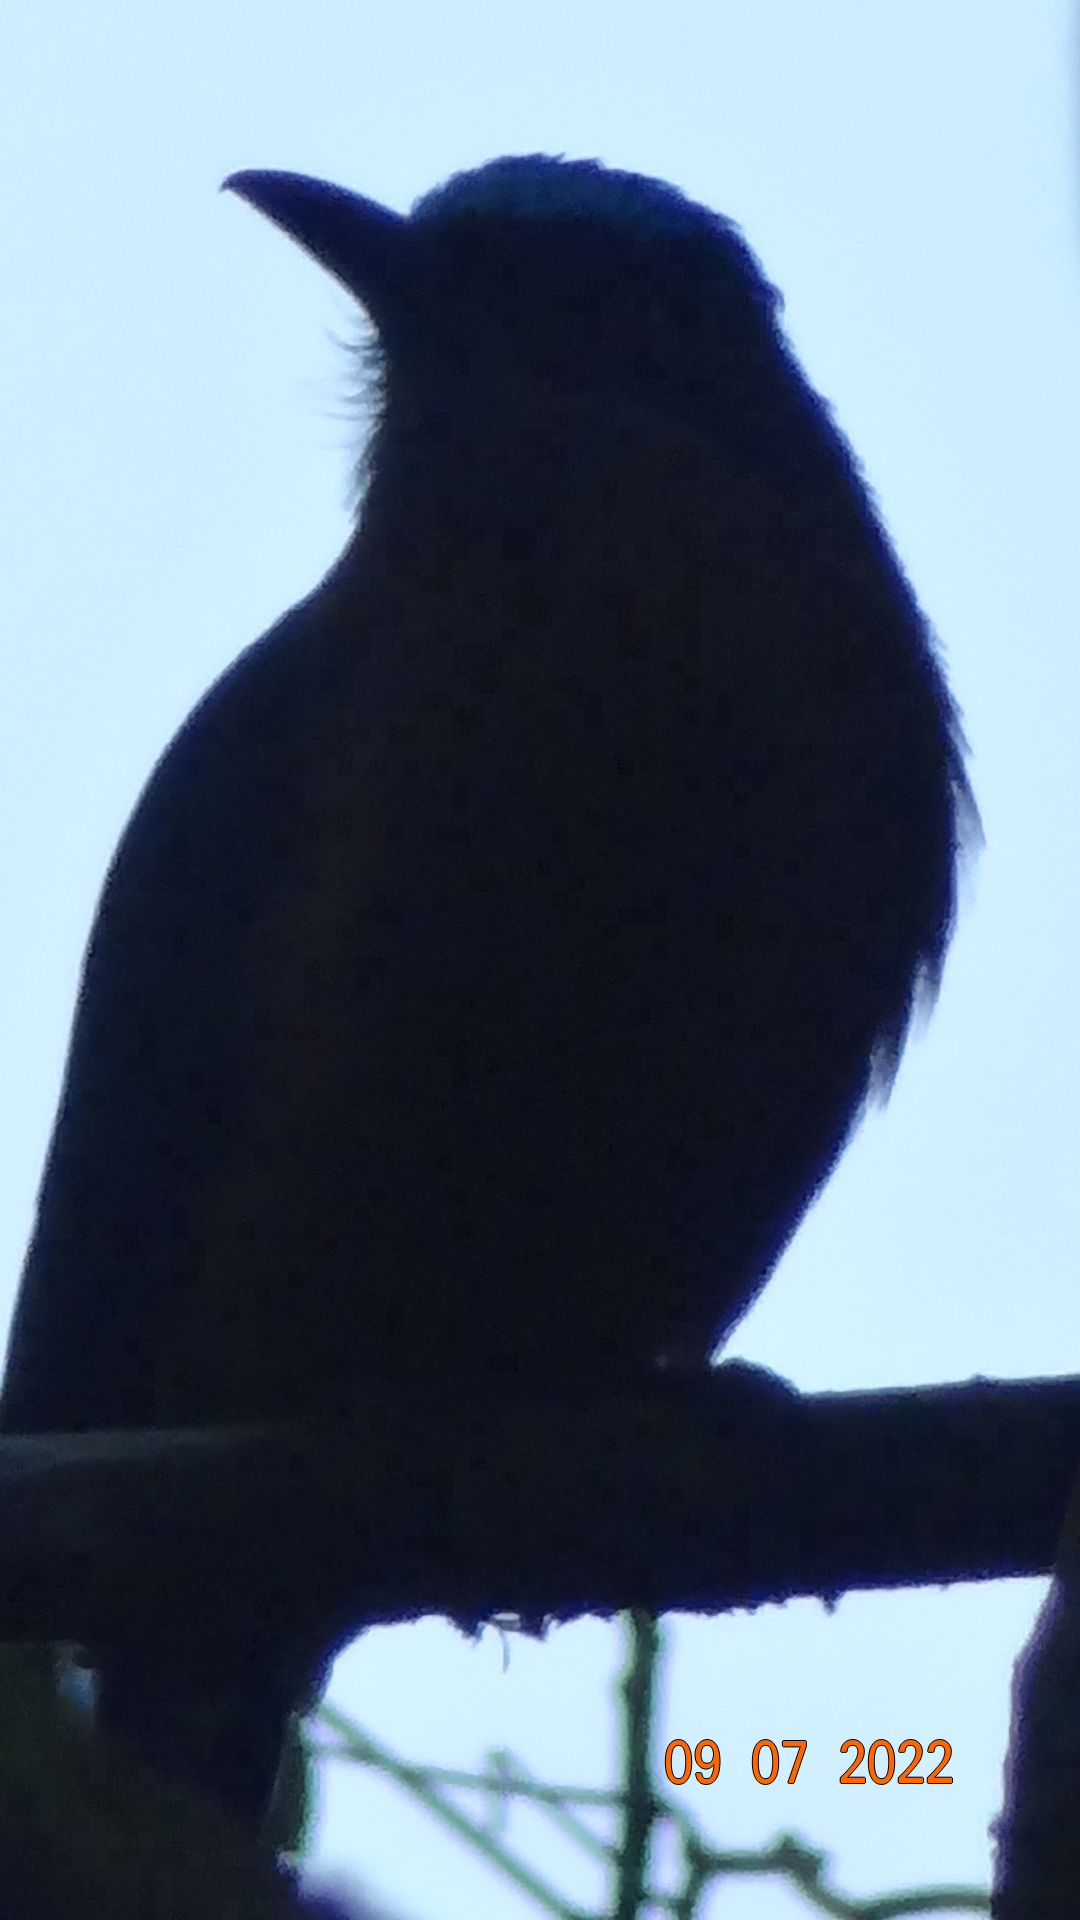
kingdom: Animalia
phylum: Chordata
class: Aves
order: Coraciiformes
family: Momotidae
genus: Momotus
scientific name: Momotus subrufescens
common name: Whooping motmot
